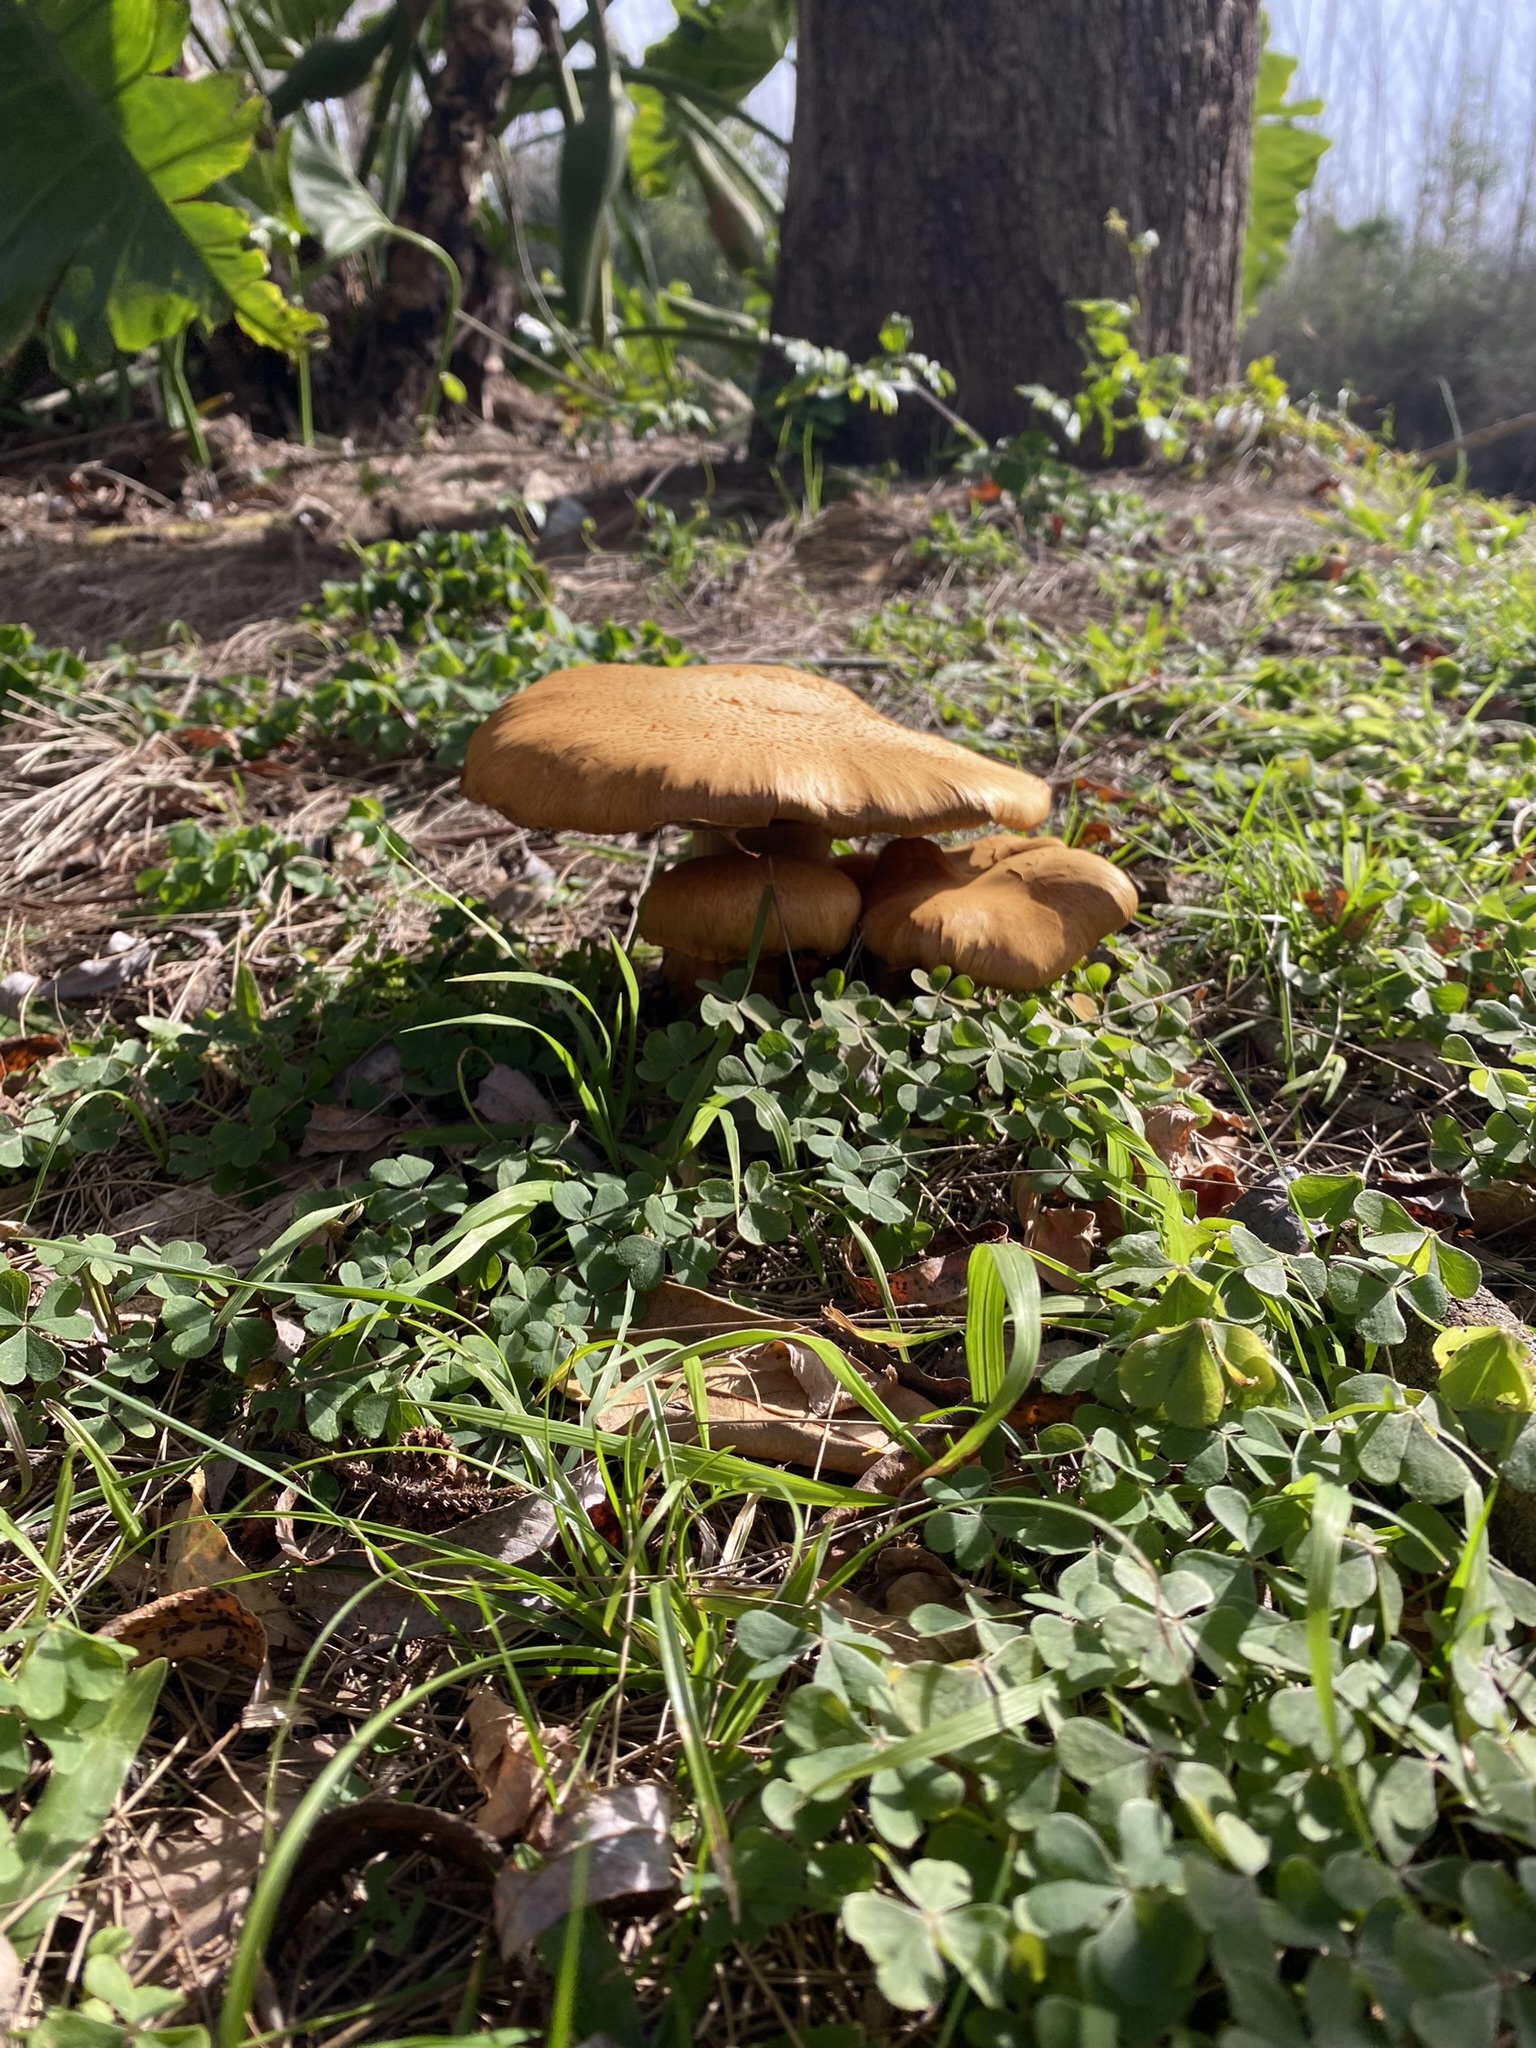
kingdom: Fungi
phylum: Basidiomycota
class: Agaricomycetes
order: Agaricales
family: Hymenogastraceae
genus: Gymnopilus
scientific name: Gymnopilus junonius
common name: Spectacular rustgill
